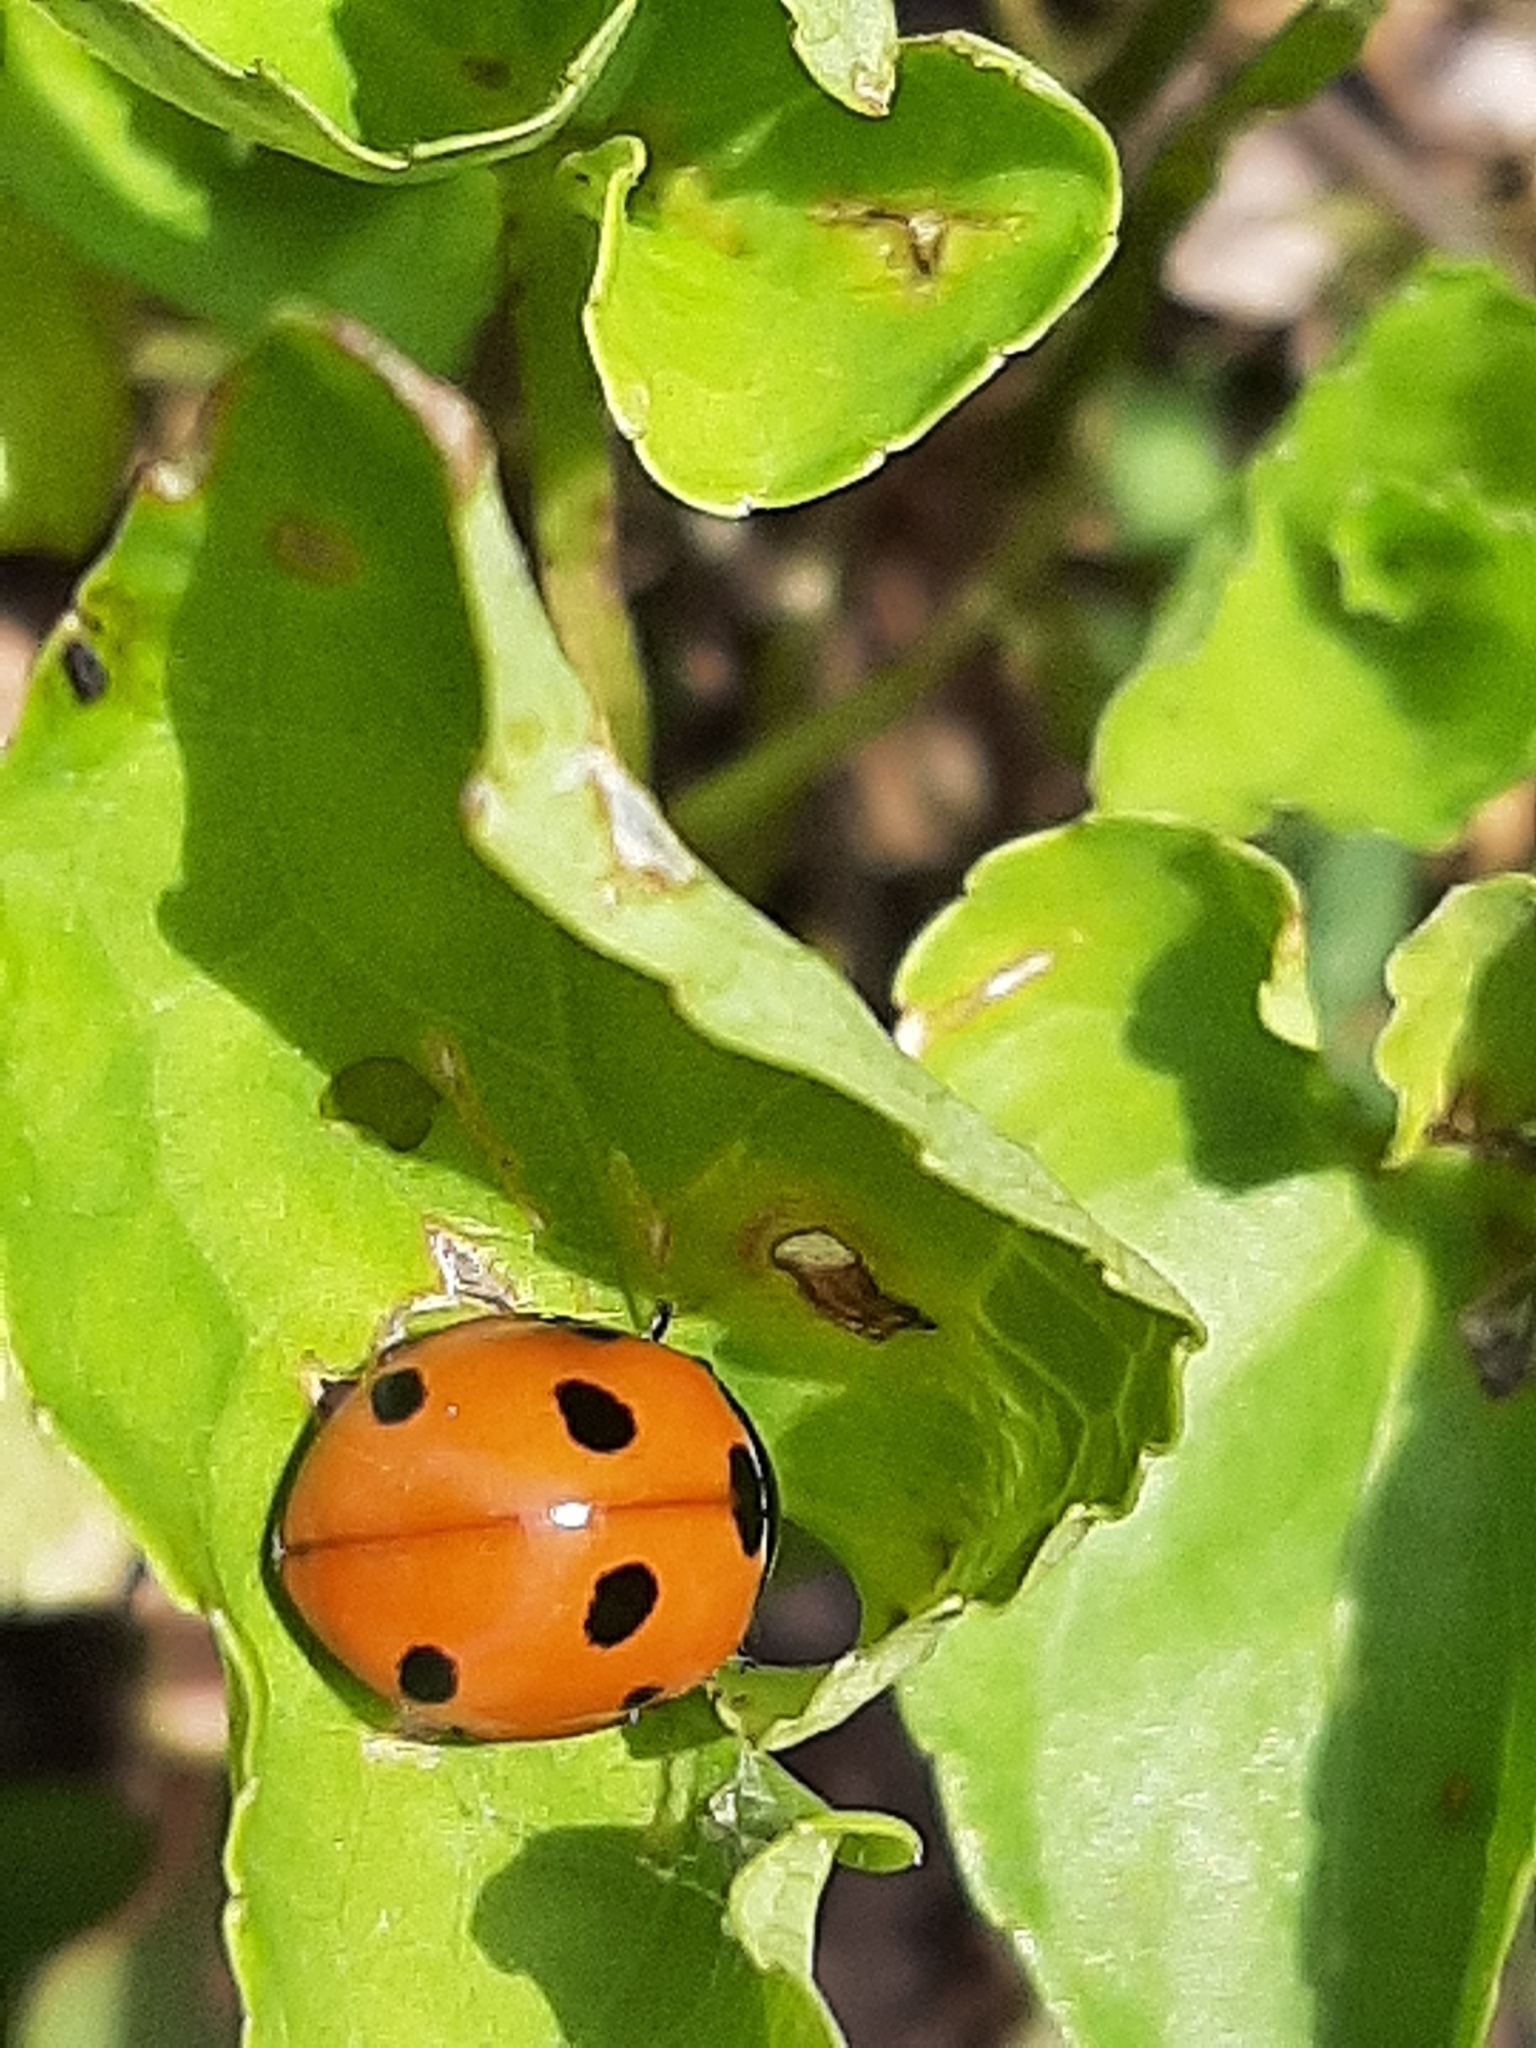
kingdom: Animalia
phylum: Arthropoda
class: Insecta
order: Coleoptera
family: Coccinellidae
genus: Coccinella
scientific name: Coccinella septempunctata
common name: Sevenspotted lady beetle
